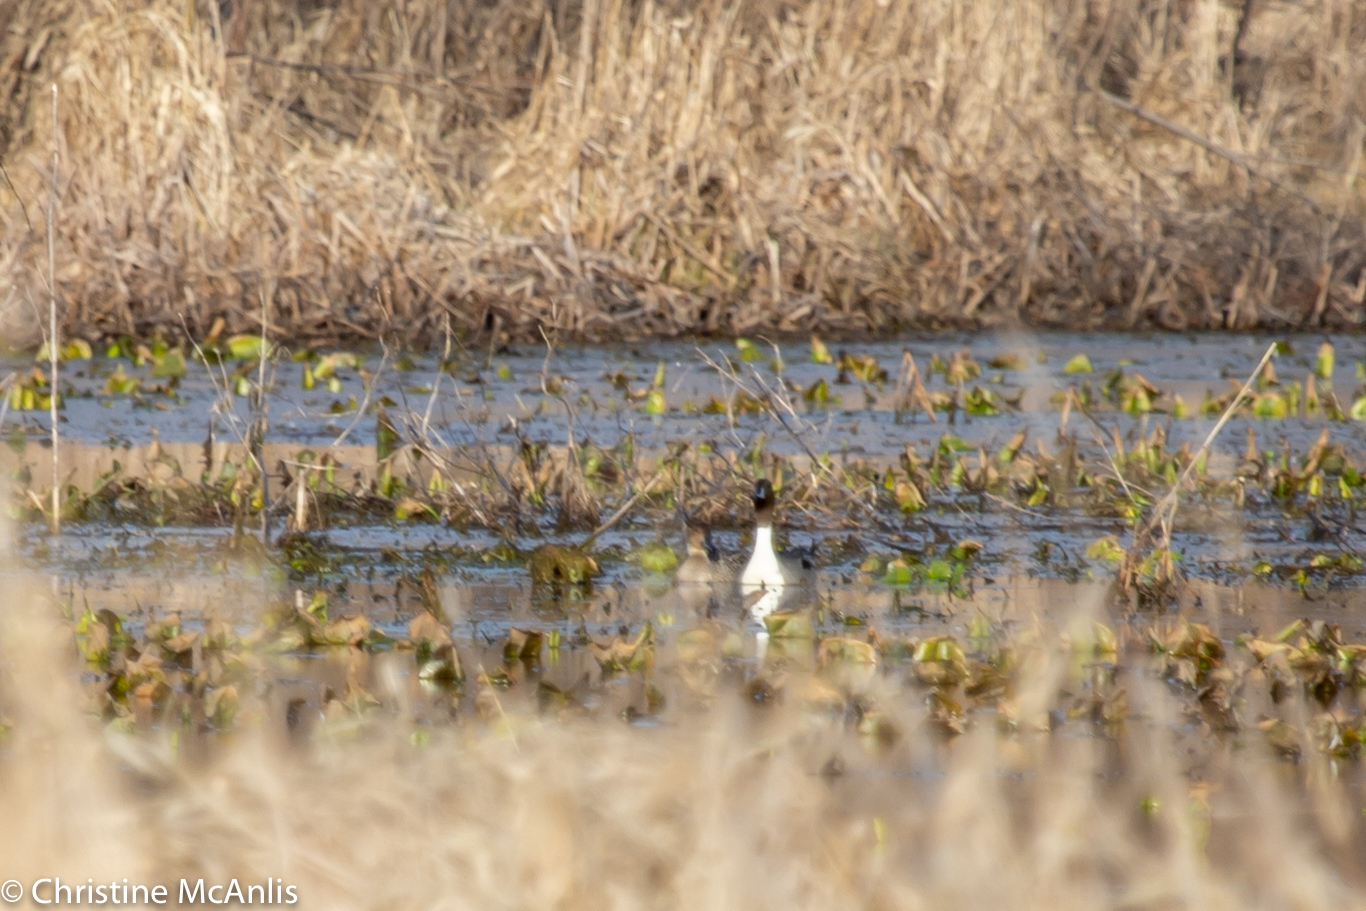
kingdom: Animalia
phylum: Chordata
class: Aves
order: Anseriformes
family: Anatidae
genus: Anas
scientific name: Anas acuta
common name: Northern pintail
